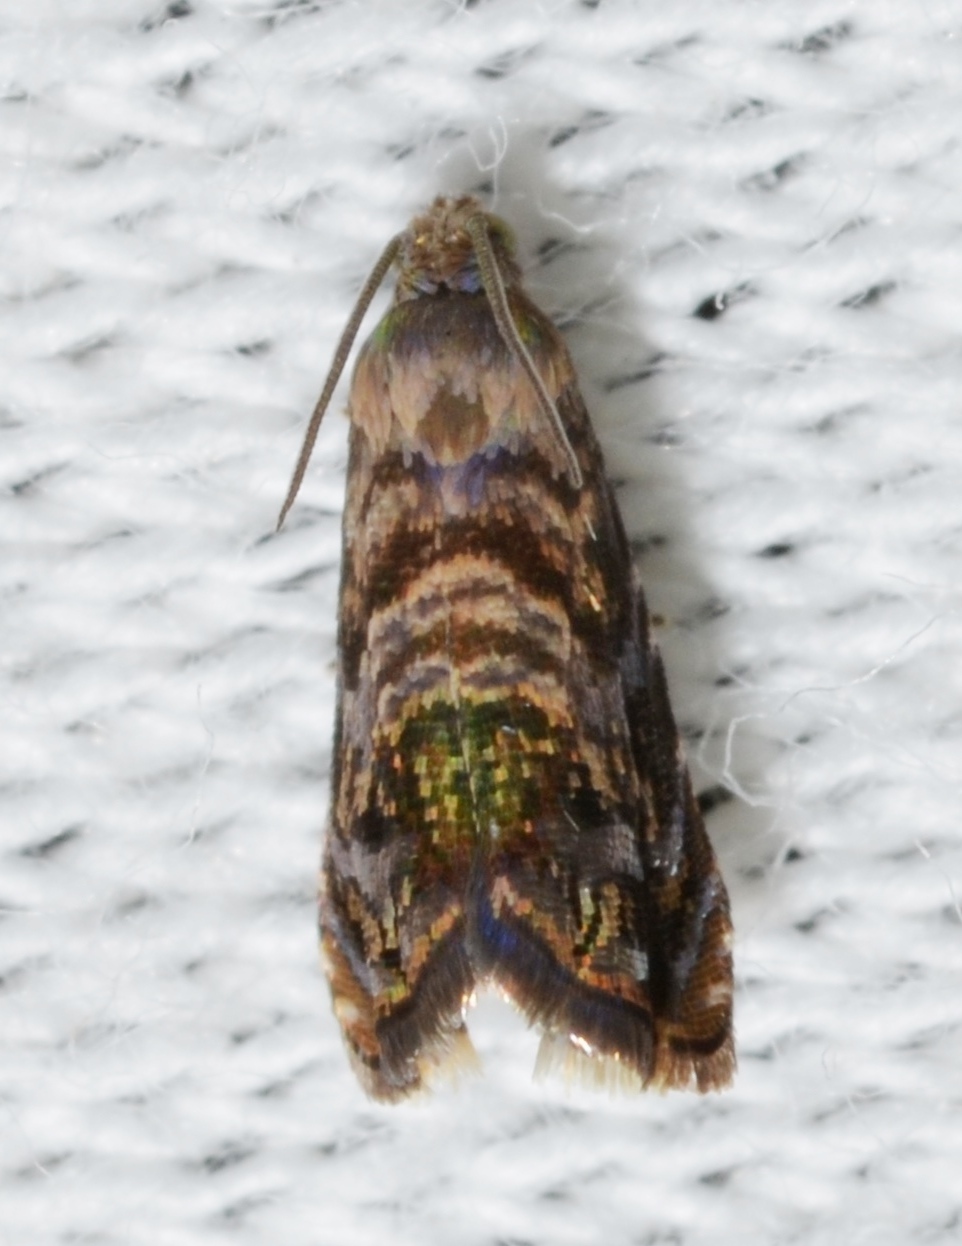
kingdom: Animalia
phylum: Arthropoda
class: Insecta
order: Lepidoptera
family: Noctuidae
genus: Aspila
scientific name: Aspila
